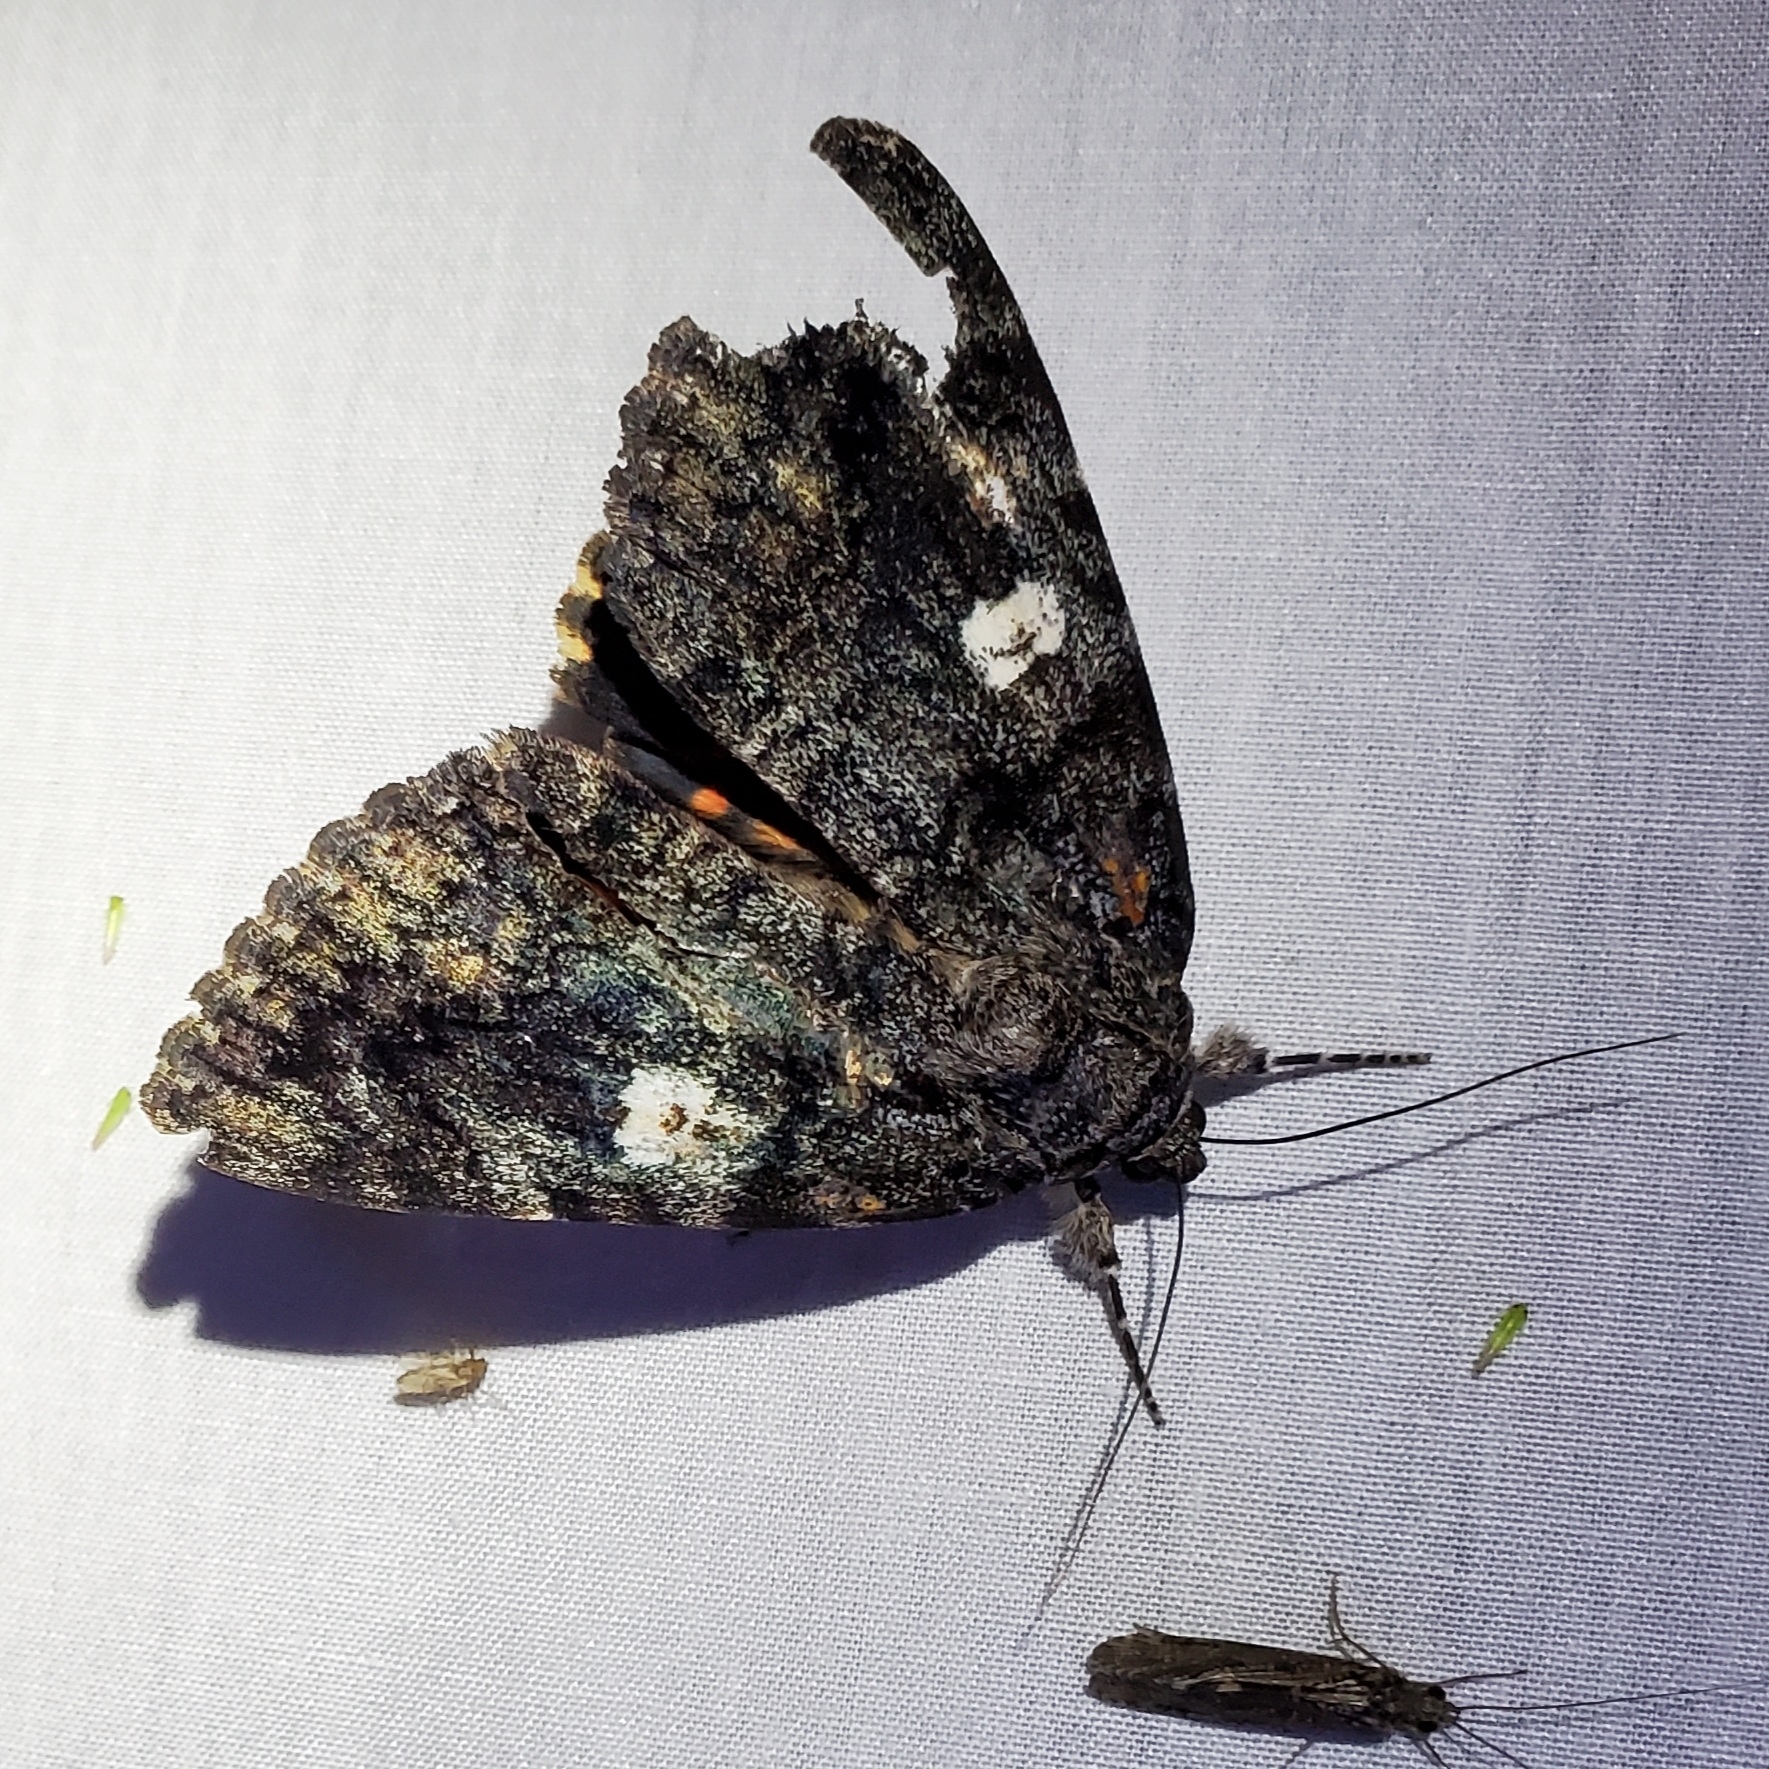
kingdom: Animalia
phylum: Arthropoda
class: Insecta
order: Lepidoptera
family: Erebidae
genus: Catocala
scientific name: Catocala ilia
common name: Ilia underwing
